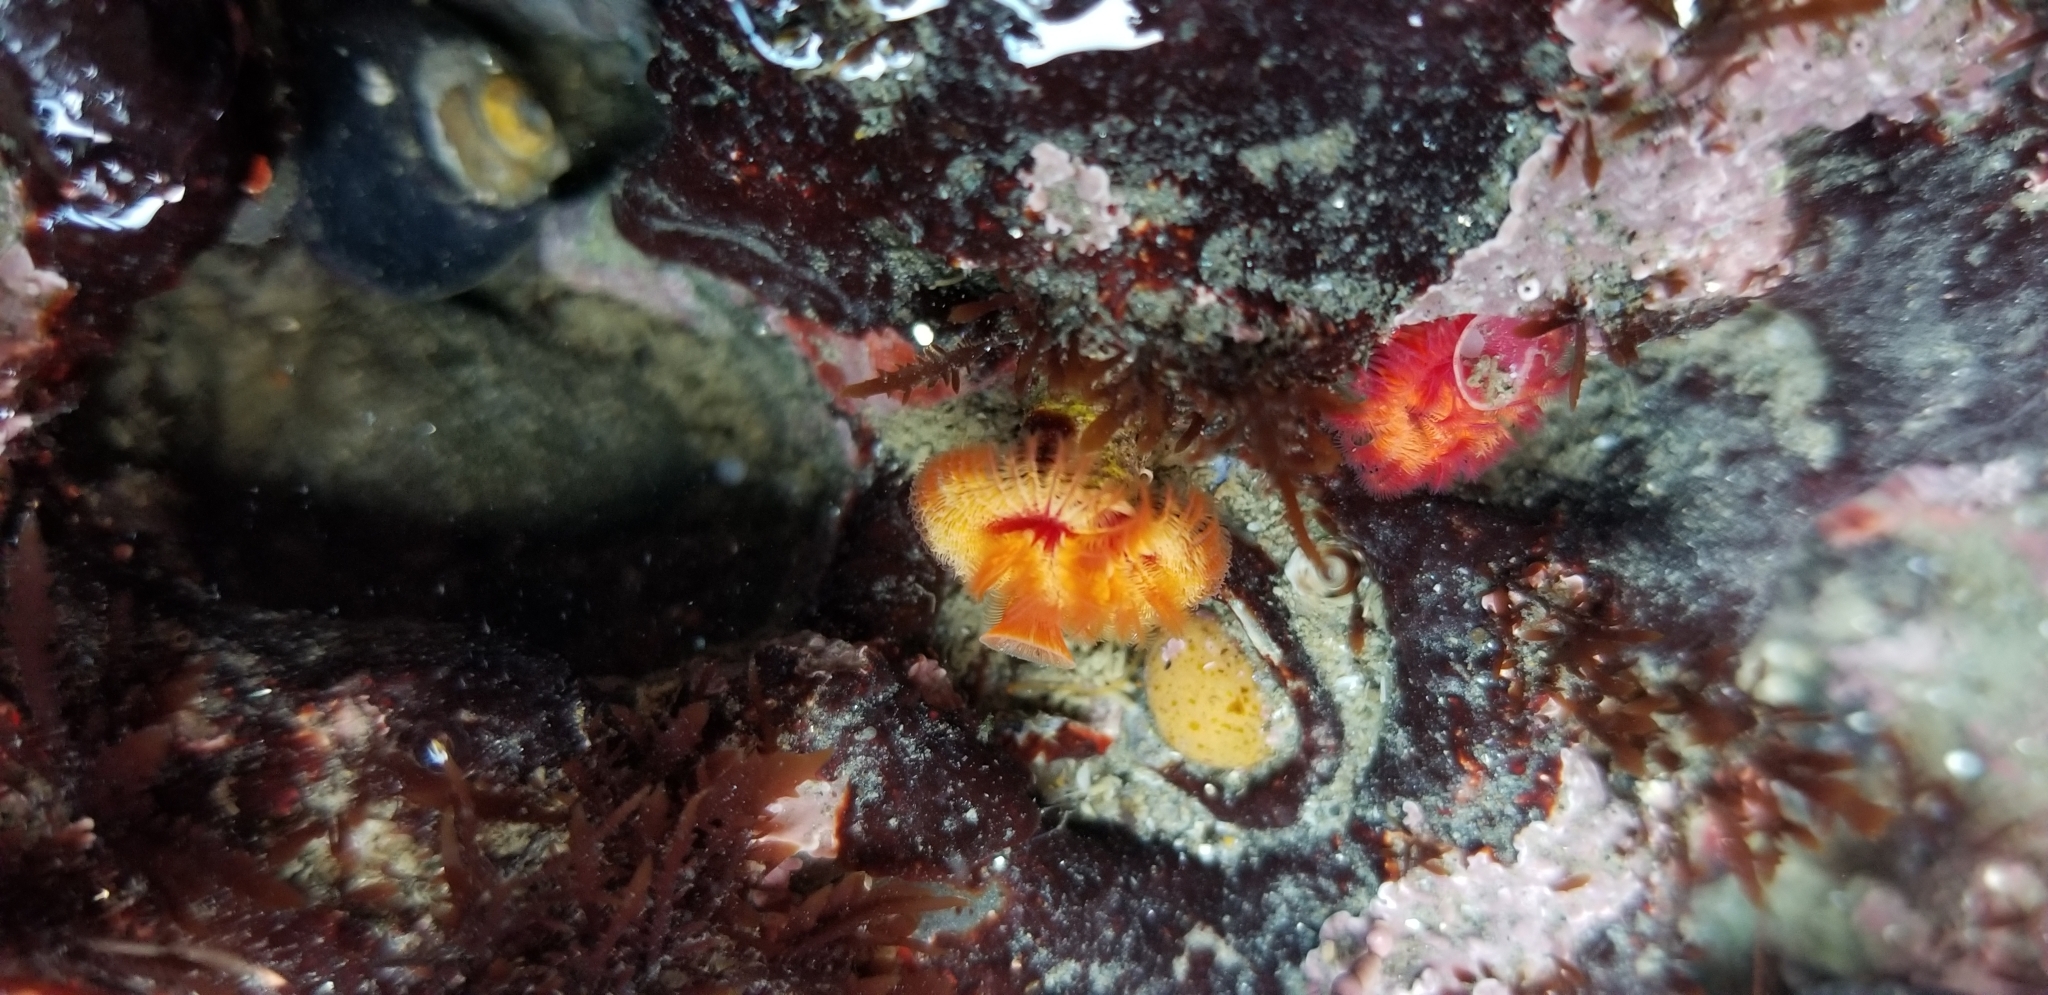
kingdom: Animalia
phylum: Annelida
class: Polychaeta
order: Sabellida
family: Serpulidae
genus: Serpula
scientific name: Serpula columbiana
